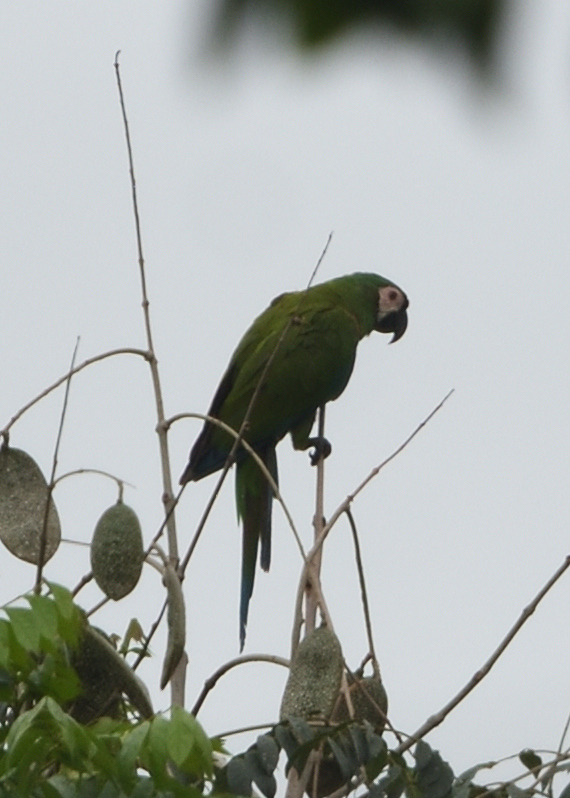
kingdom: Animalia
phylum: Chordata
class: Aves
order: Psittaciformes
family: Psittacidae
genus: Ara
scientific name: Ara severus
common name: Chestnut-fronted macaw
